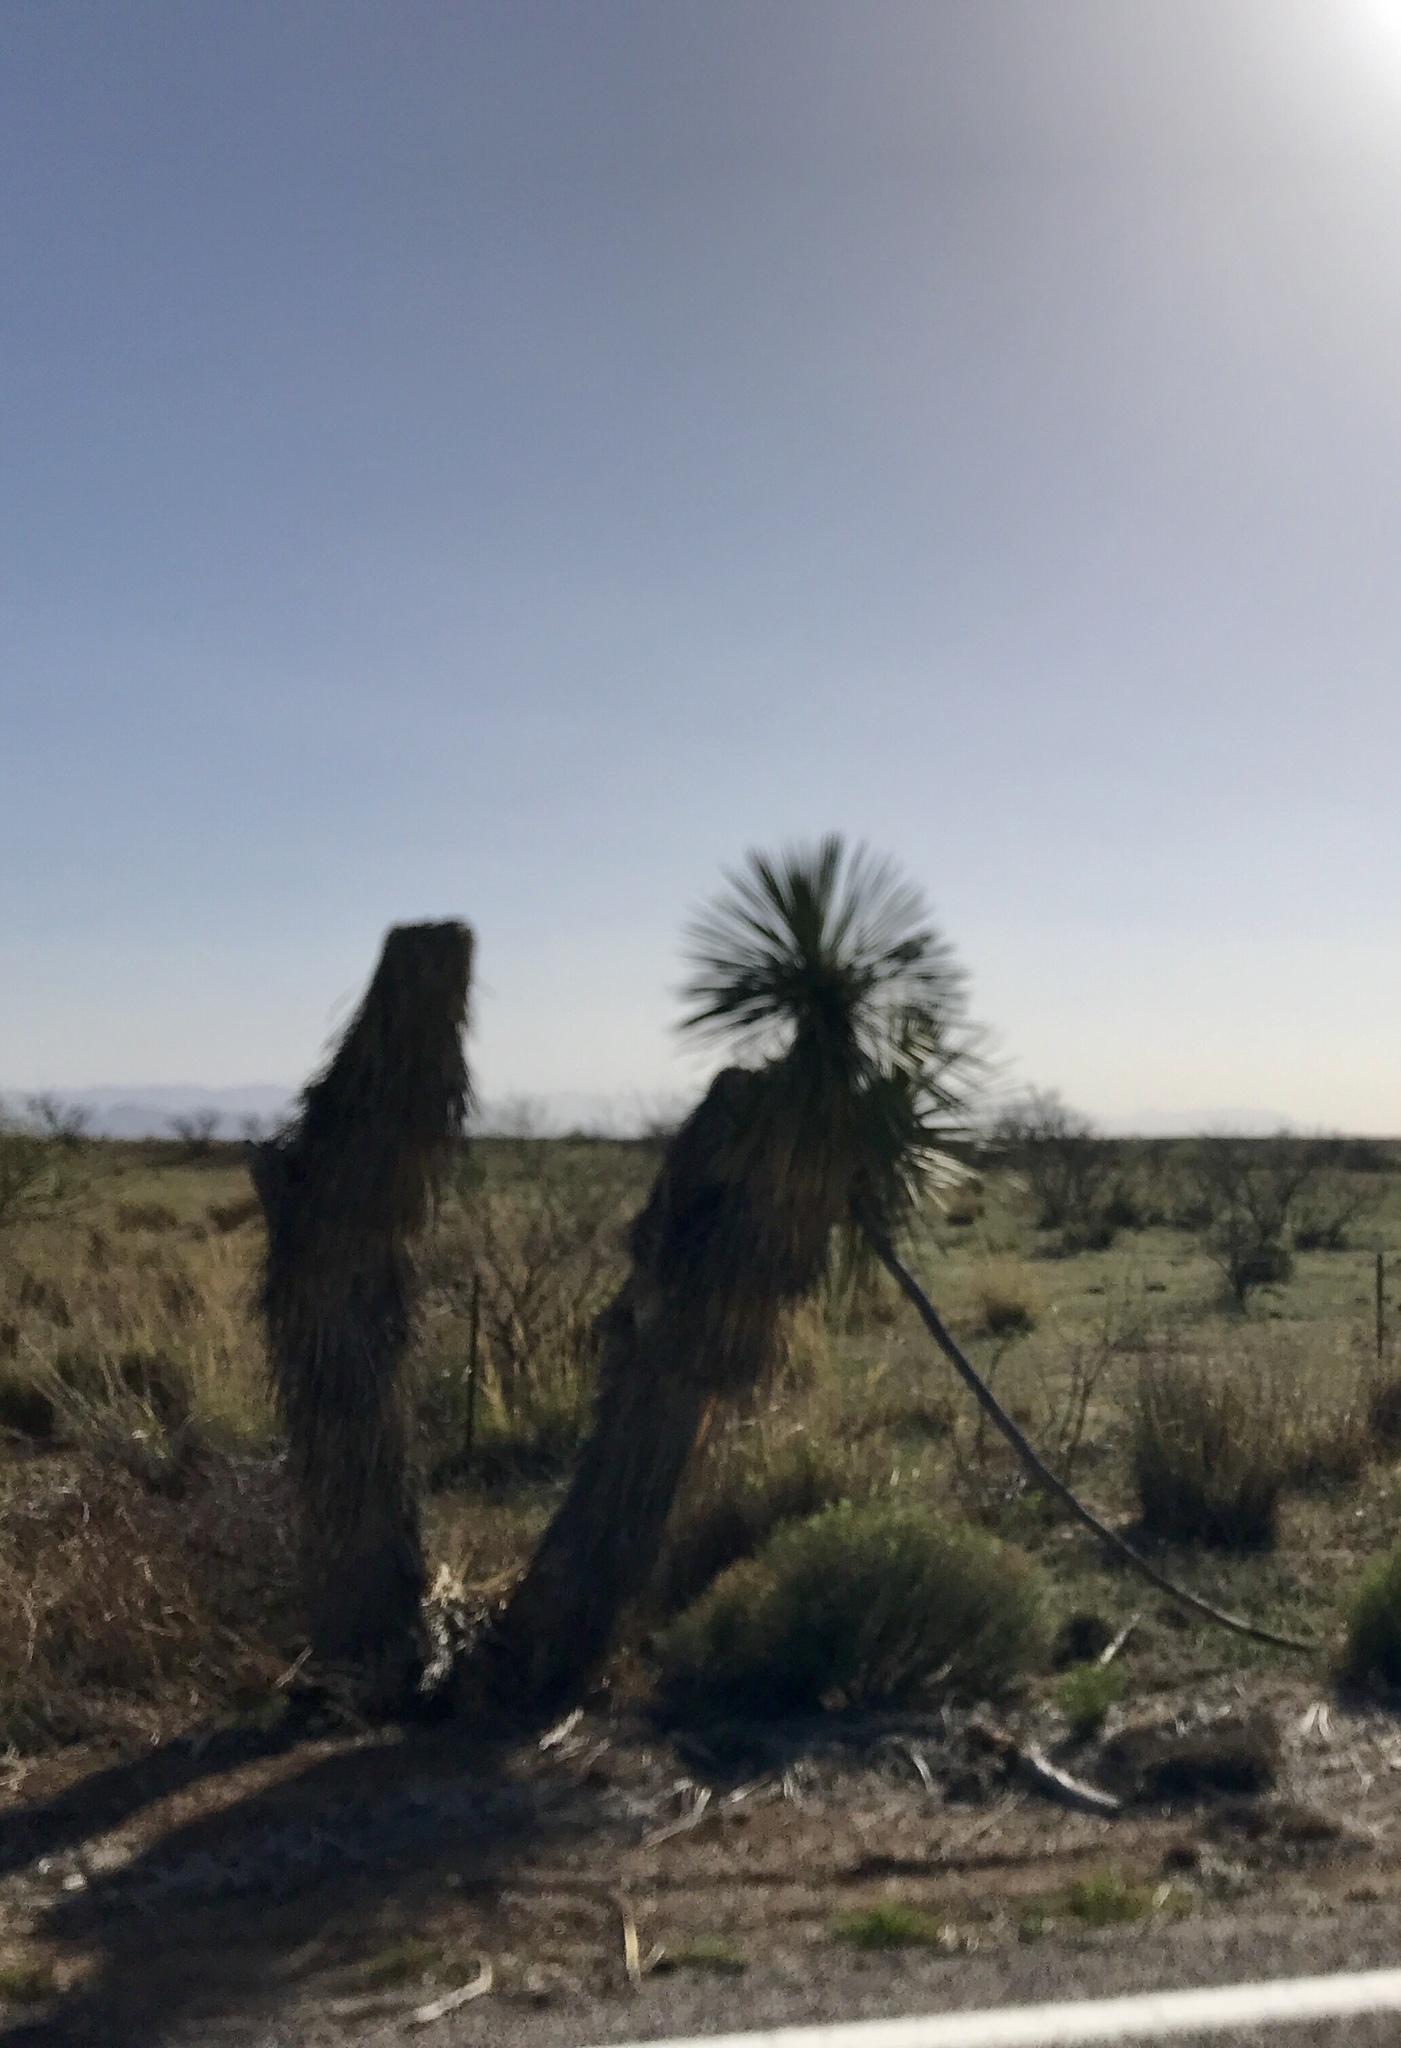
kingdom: Plantae
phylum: Tracheophyta
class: Liliopsida
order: Asparagales
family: Asparagaceae
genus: Yucca
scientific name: Yucca elata
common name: Palmella
